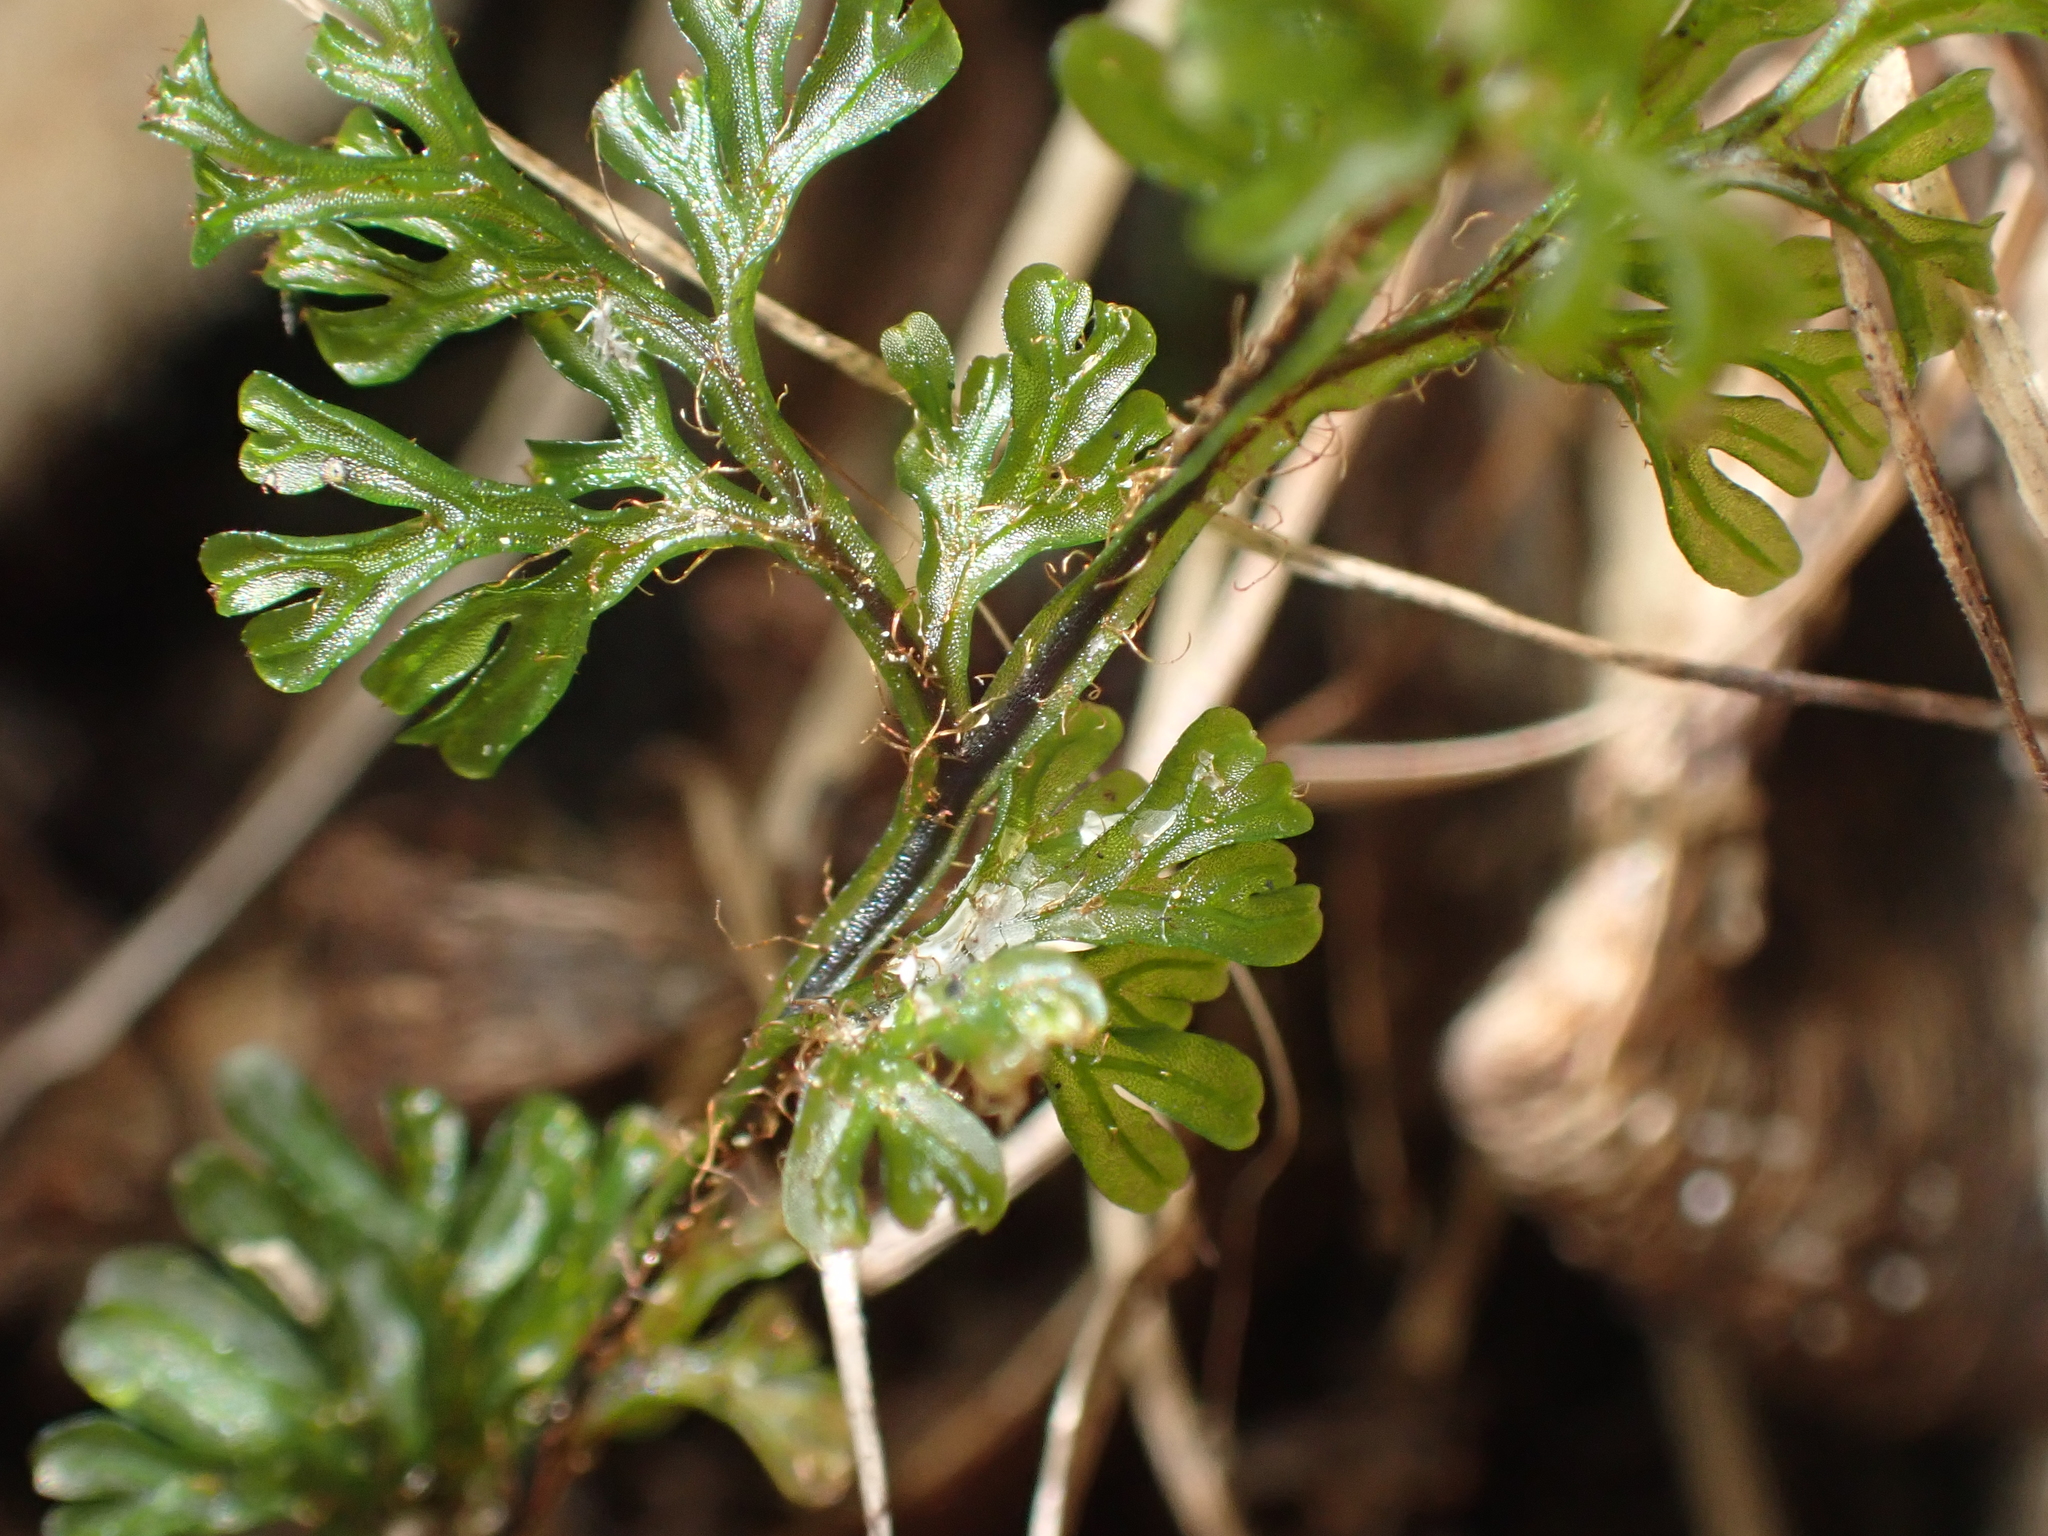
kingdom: Plantae
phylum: Tracheophyta
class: Polypodiopsida
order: Hymenophyllales
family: Hymenophyllaceae
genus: Hymenophyllum
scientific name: Hymenophyllum villosum
